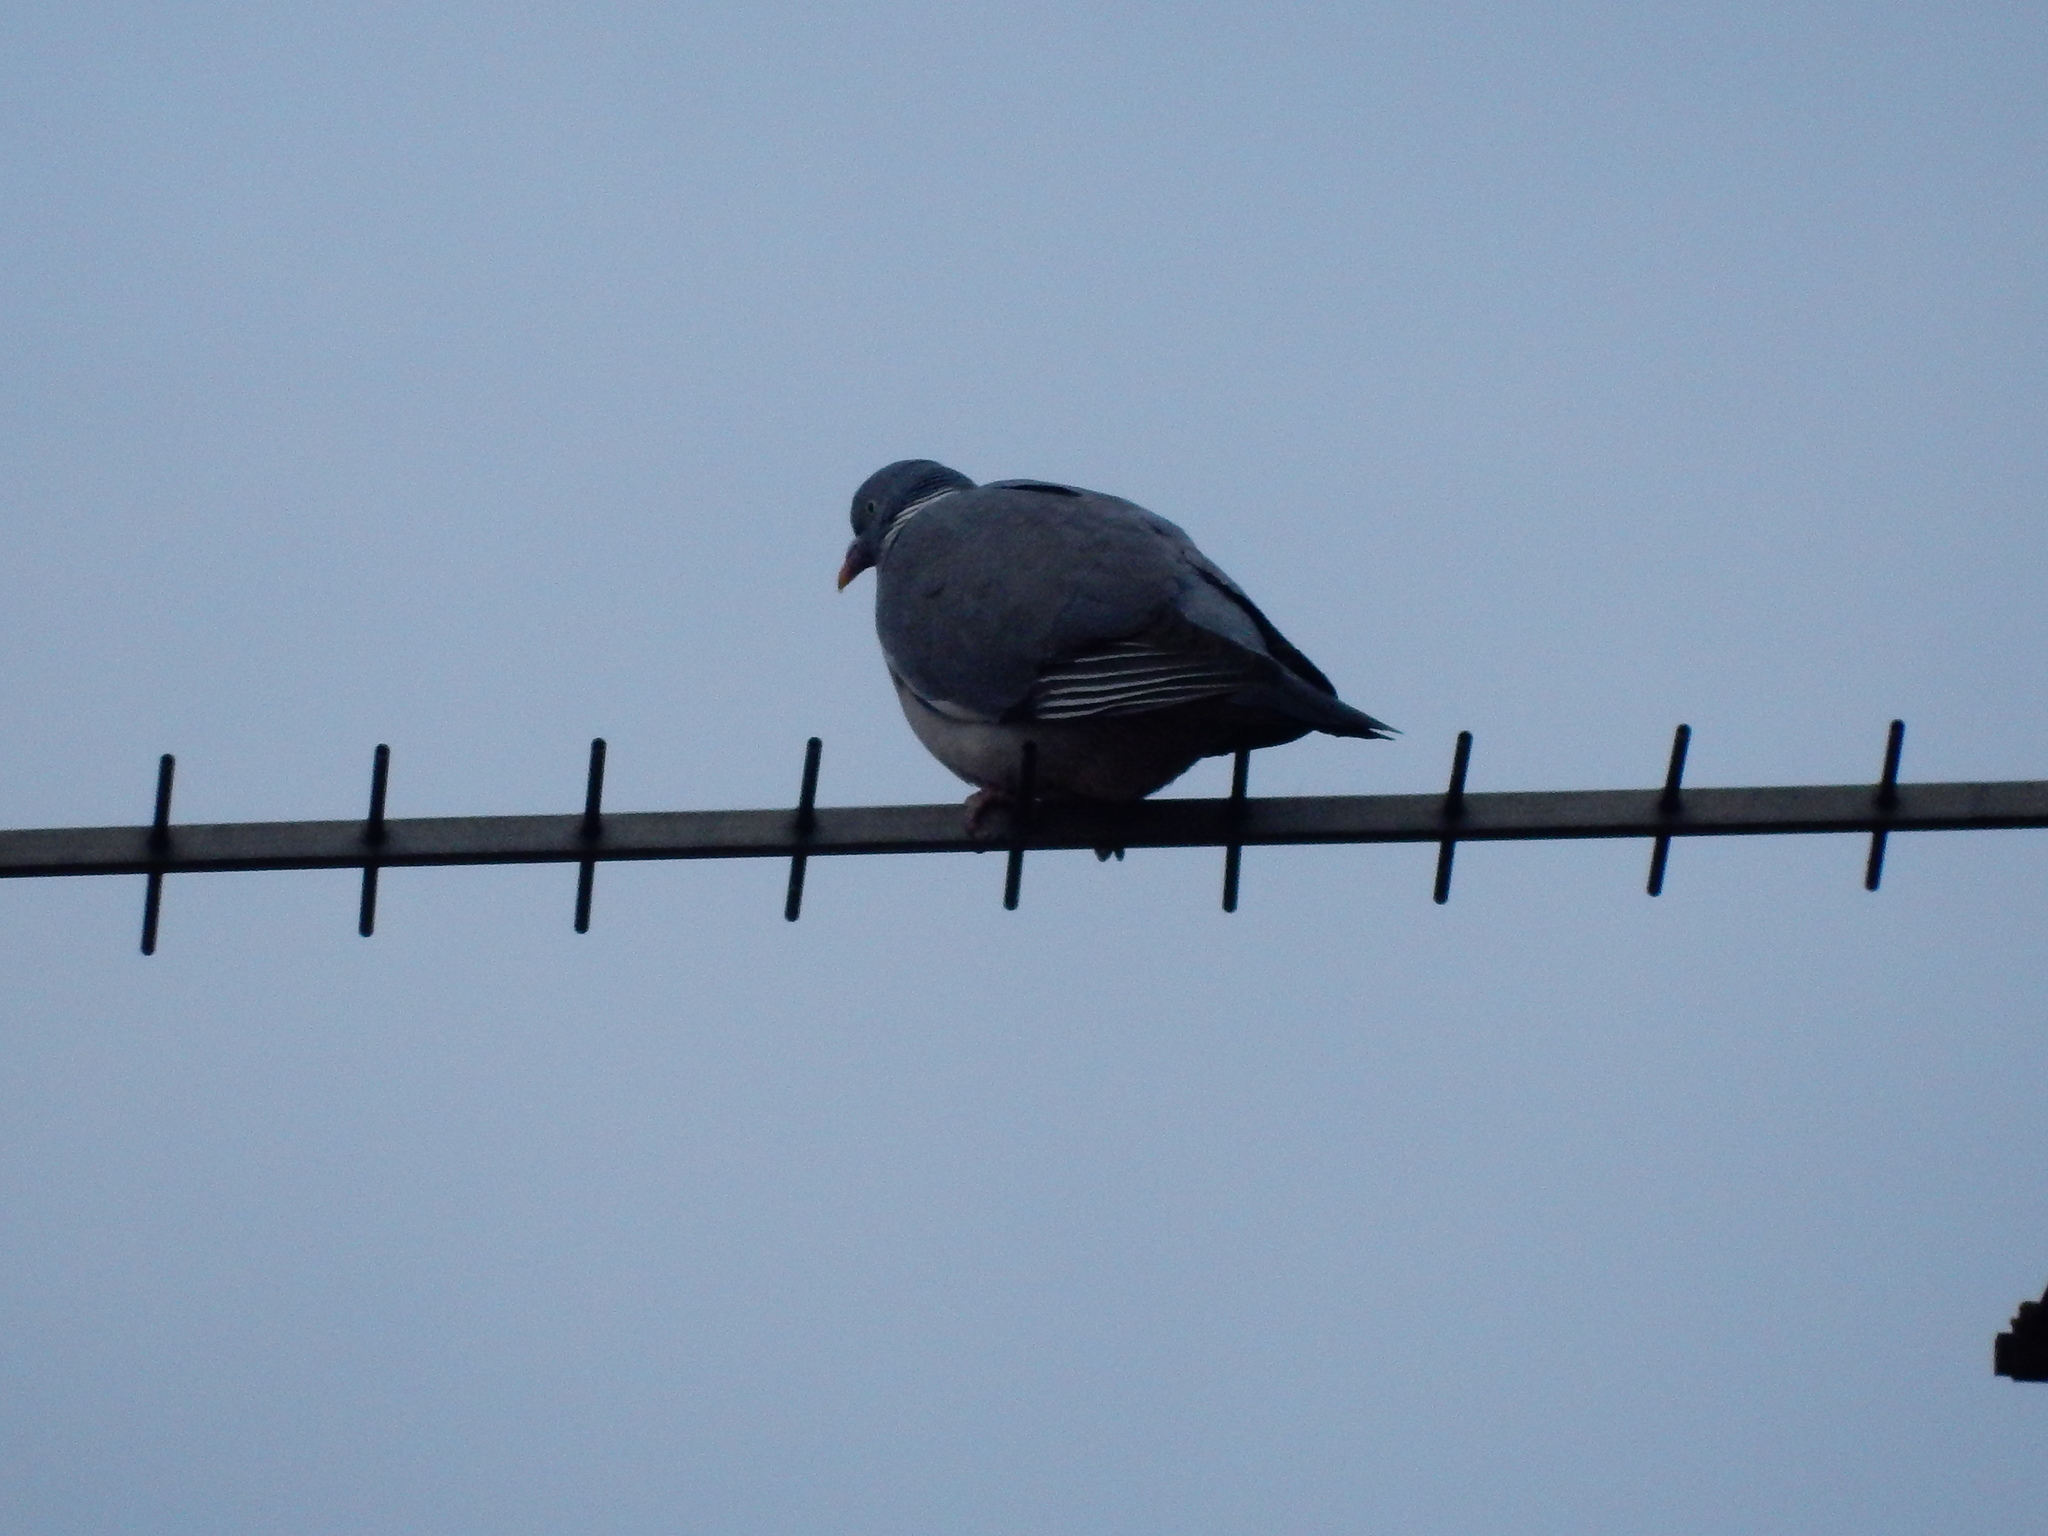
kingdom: Animalia
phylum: Chordata
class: Aves
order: Columbiformes
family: Columbidae
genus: Columba
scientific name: Columba palumbus
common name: Common wood pigeon
